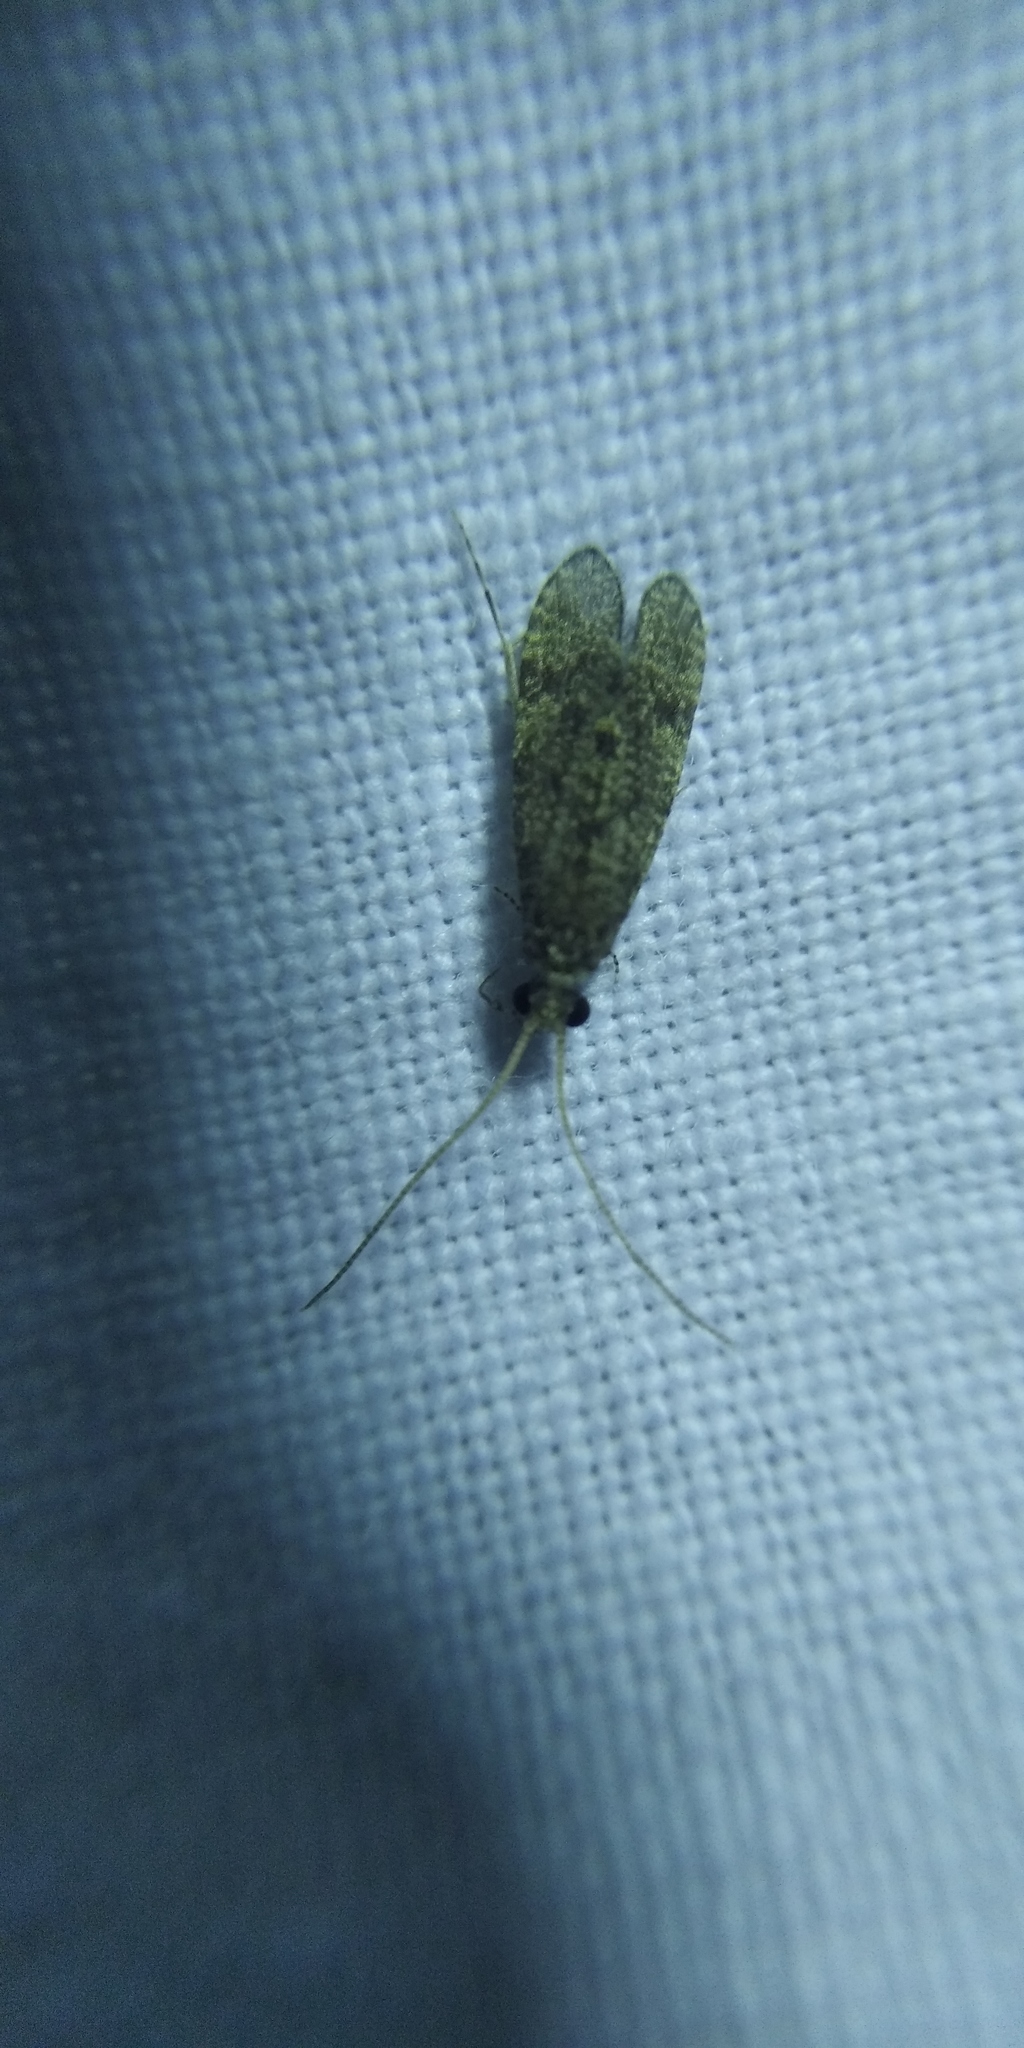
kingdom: Animalia
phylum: Arthropoda
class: Insecta
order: Trichoptera
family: Ecnomidae
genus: Ecnomus
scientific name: Ecnomus tenellus
